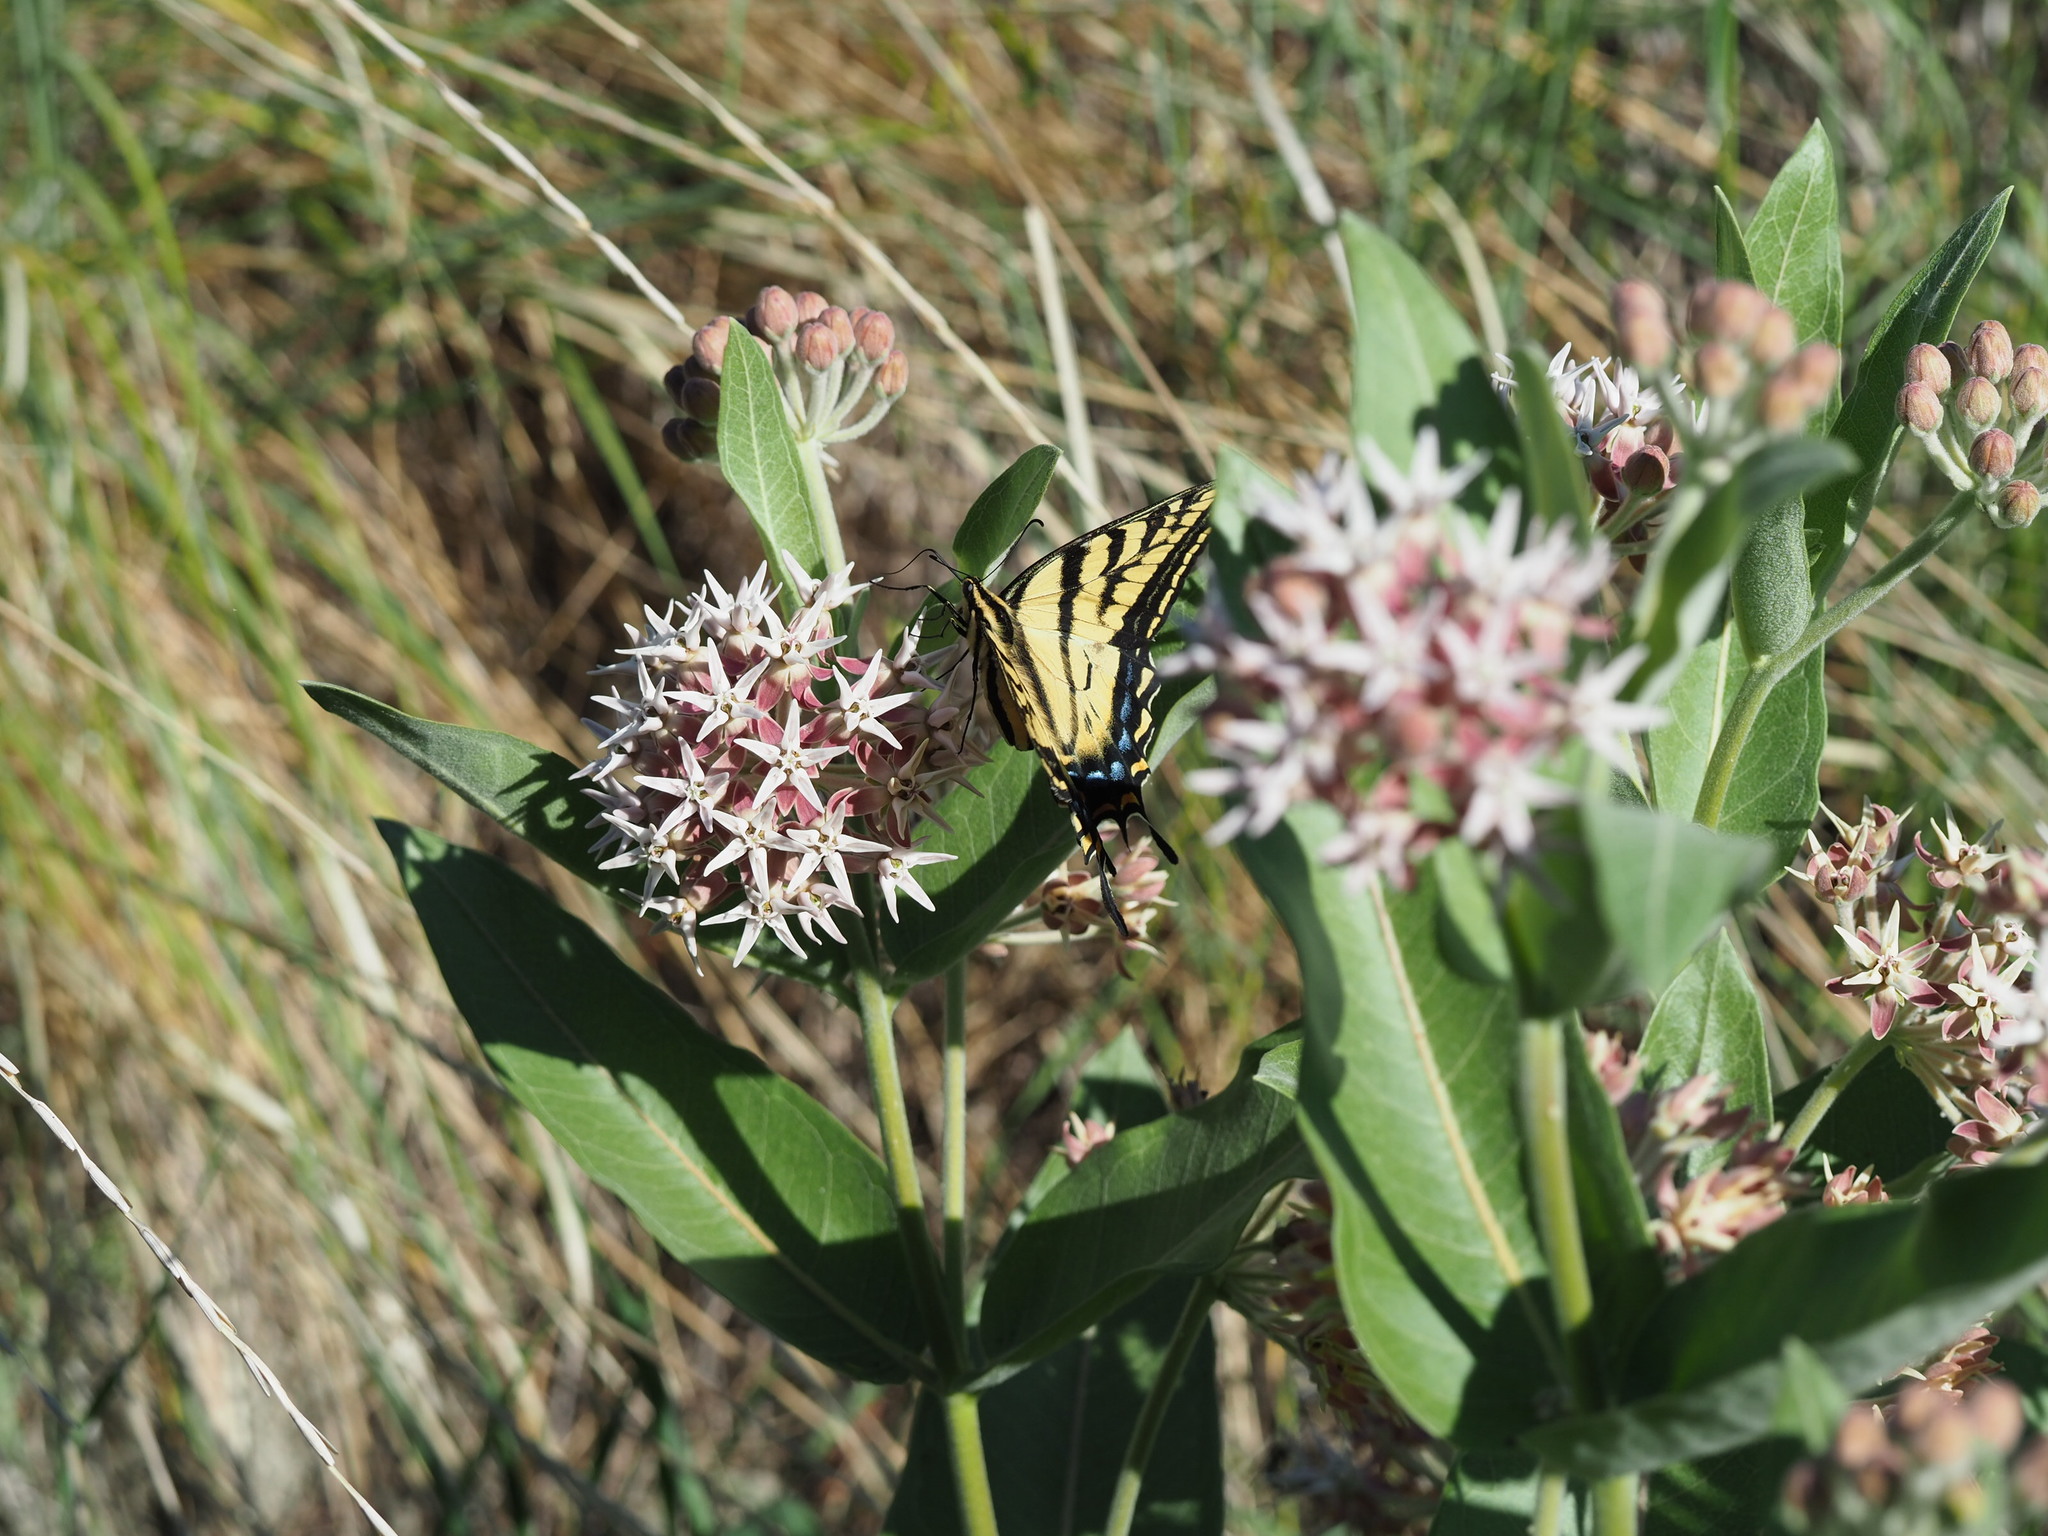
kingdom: Animalia
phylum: Arthropoda
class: Insecta
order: Lepidoptera
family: Papilionidae
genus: Papilio
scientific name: Papilio multicaudata
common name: Two-tailed tiger swallowtail
